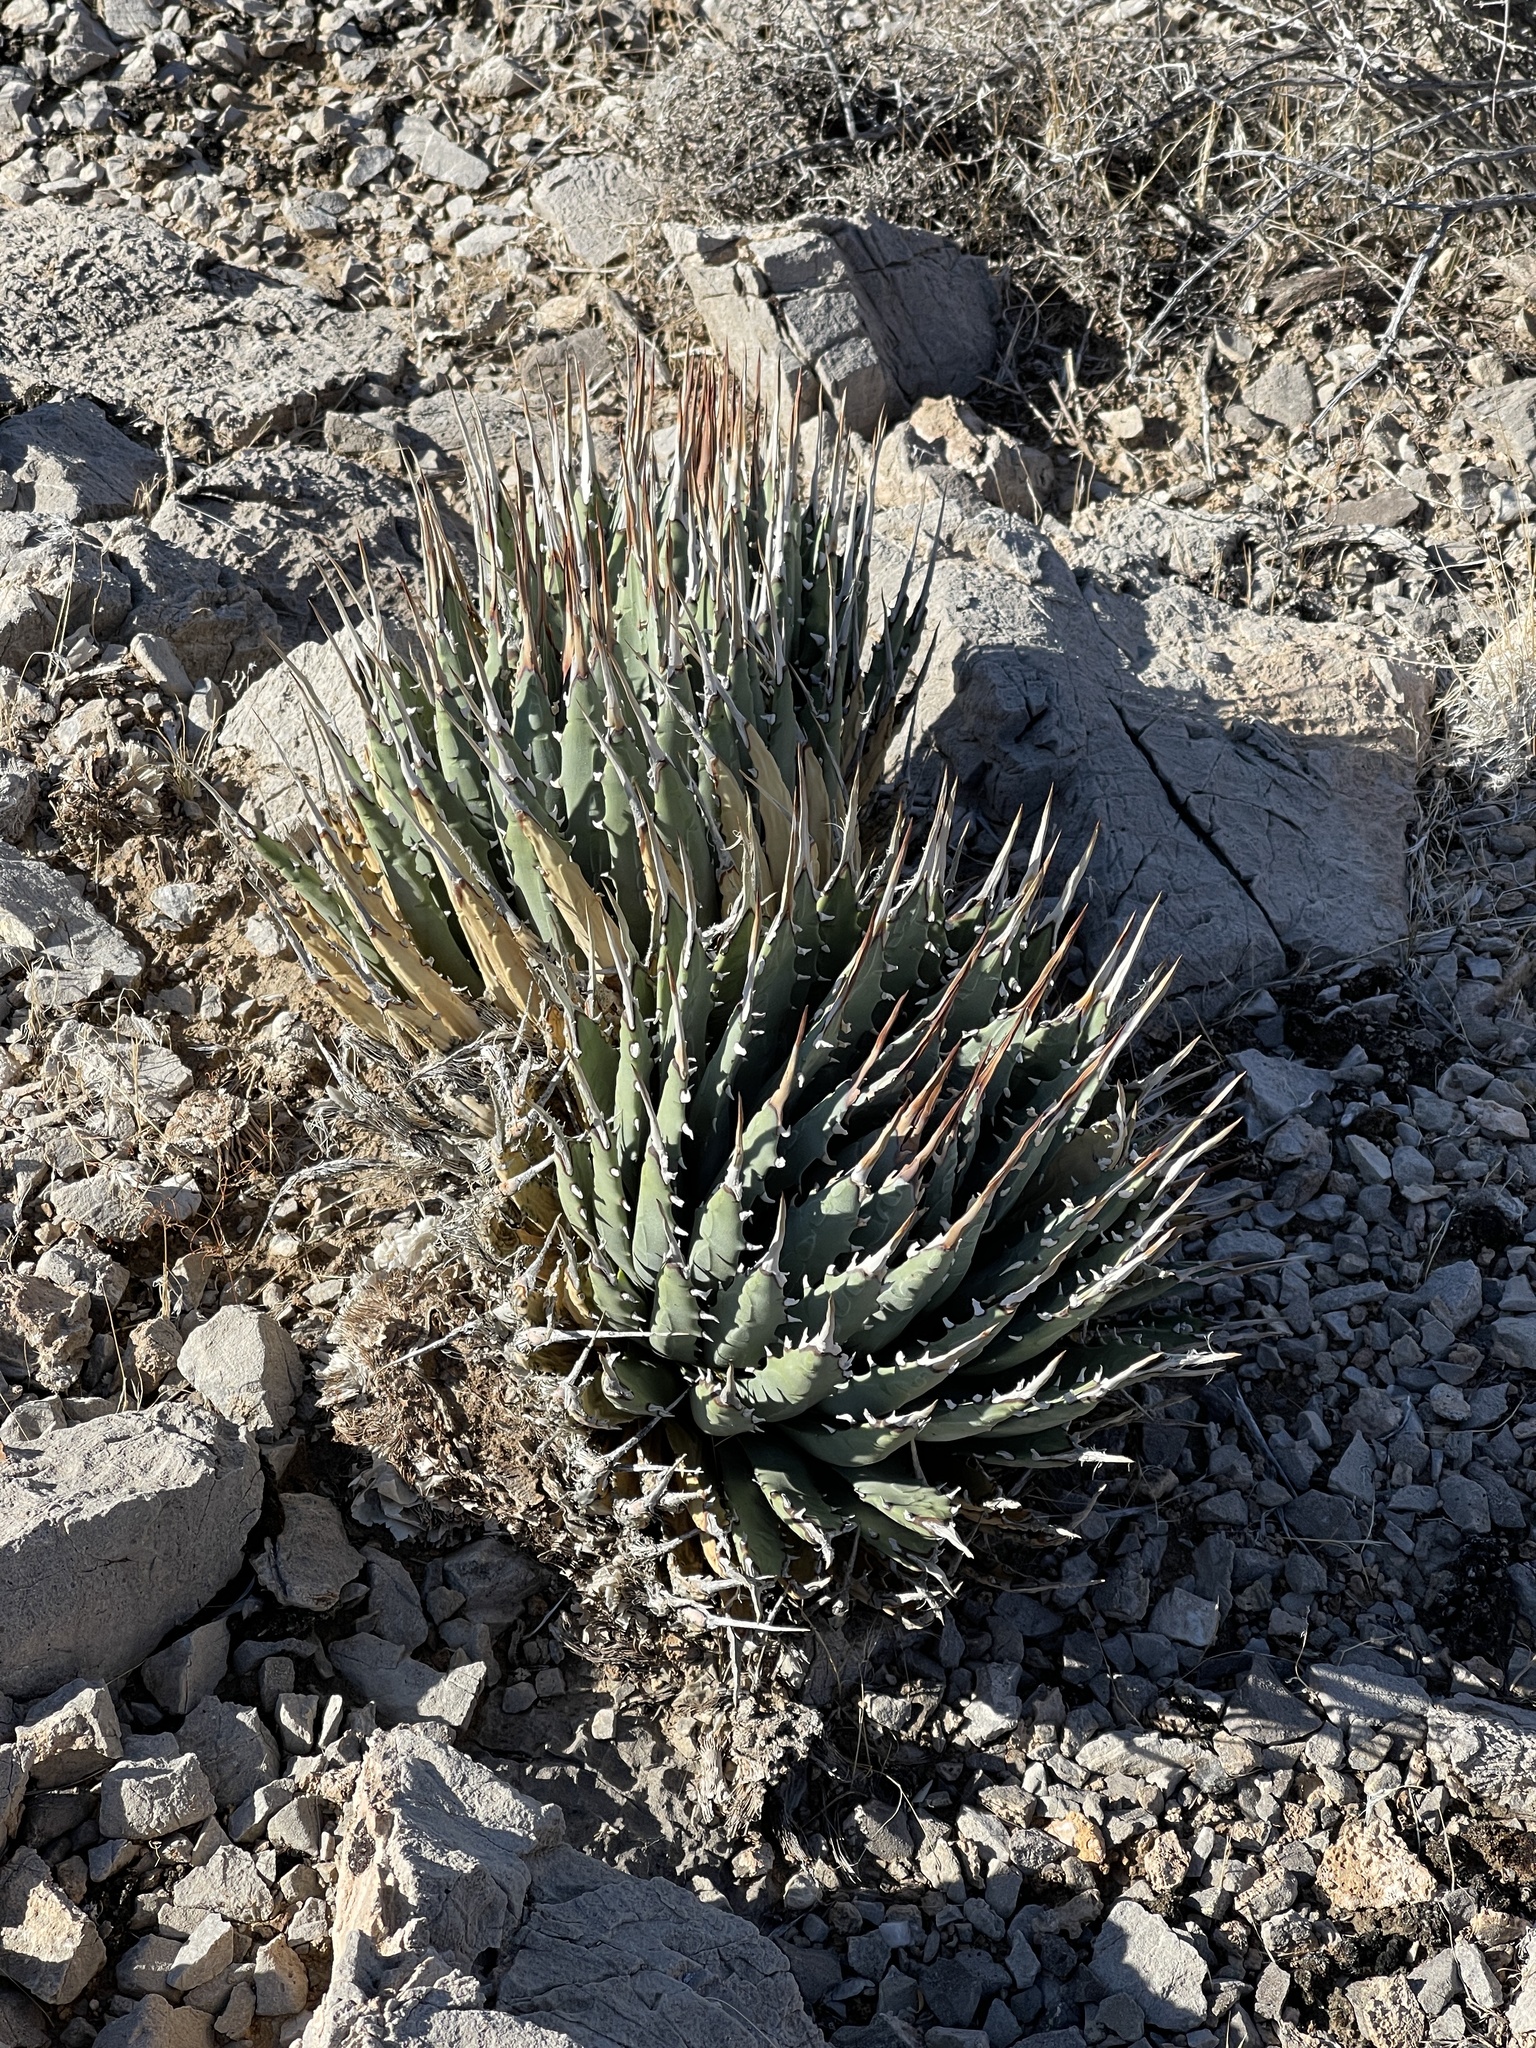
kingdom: Plantae
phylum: Tracheophyta
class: Liliopsida
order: Asparagales
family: Asparagaceae
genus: Agave
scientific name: Agave utahensis
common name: Utah agave
